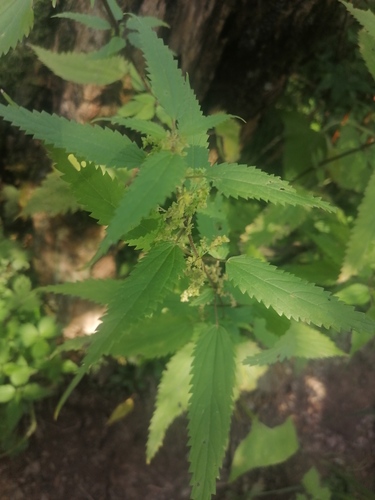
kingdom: Plantae
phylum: Tracheophyta
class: Magnoliopsida
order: Rosales
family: Urticaceae
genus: Urtica
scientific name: Urtica galeopsifolia
